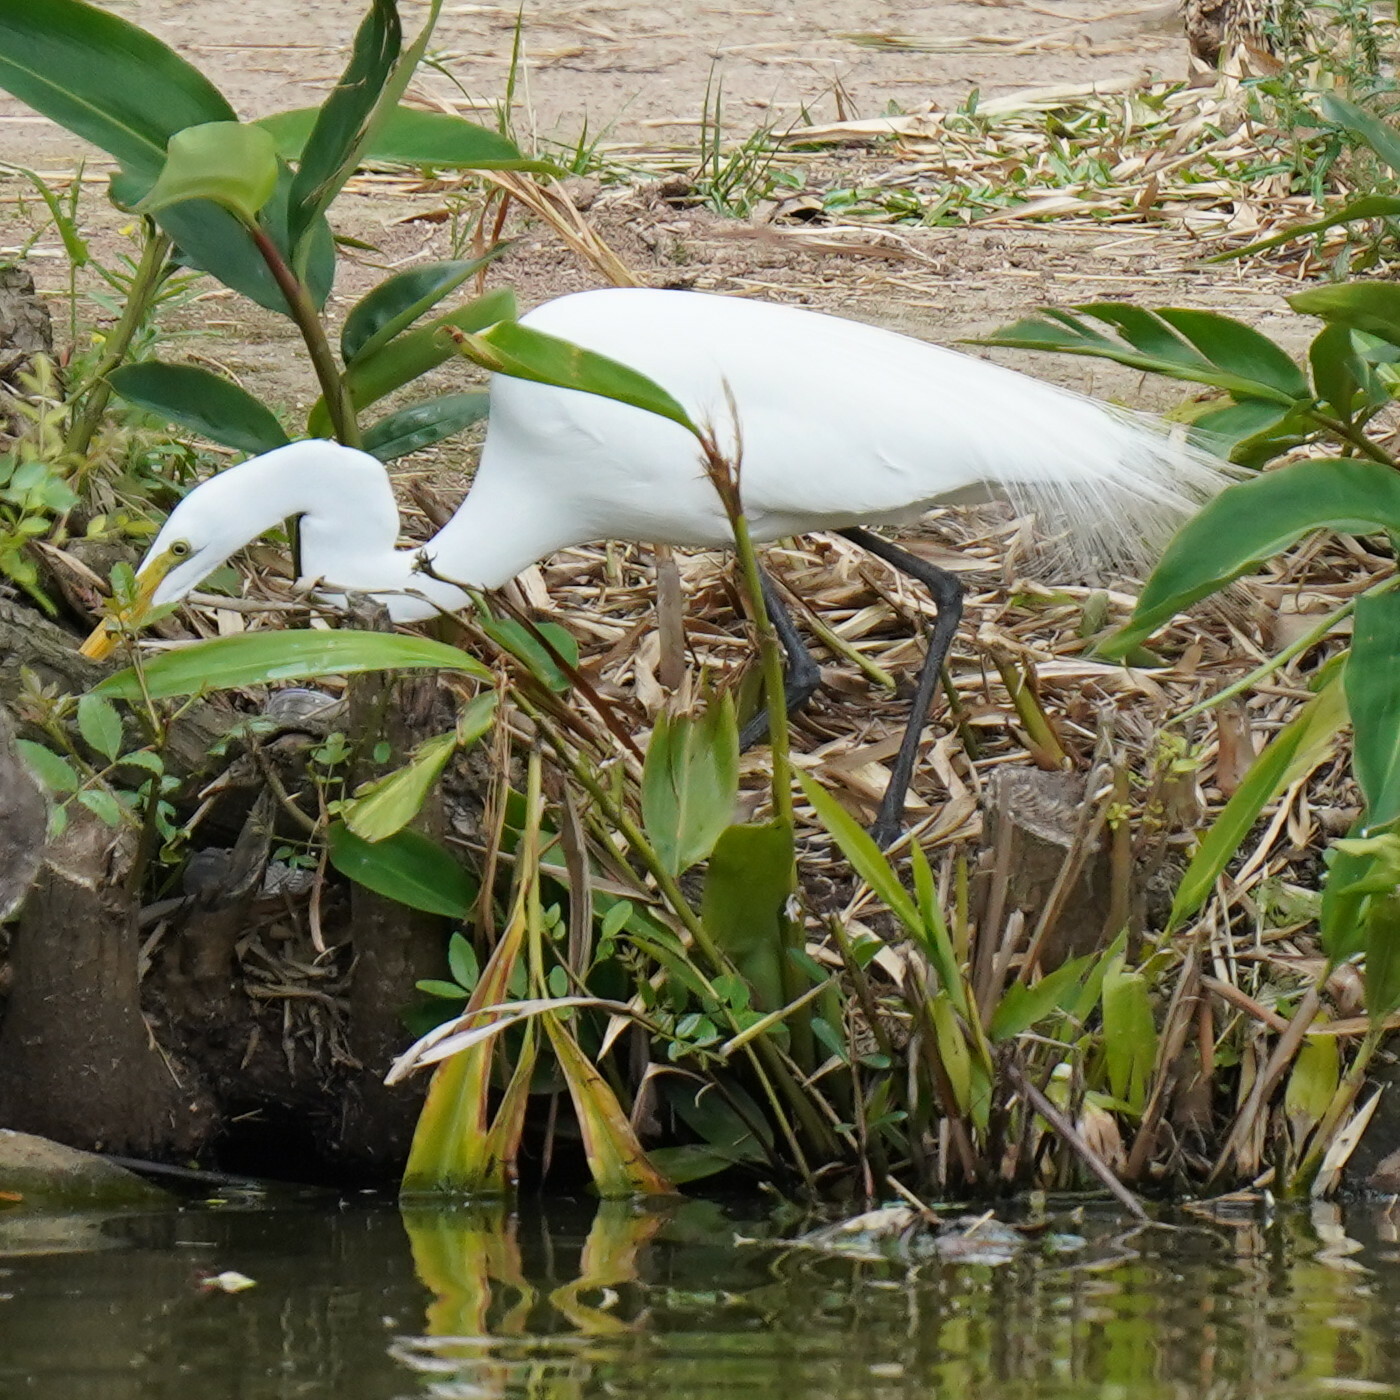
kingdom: Animalia
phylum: Chordata
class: Aves
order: Pelecaniformes
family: Ardeidae
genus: Ardea
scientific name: Ardea alba
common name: Great egret
